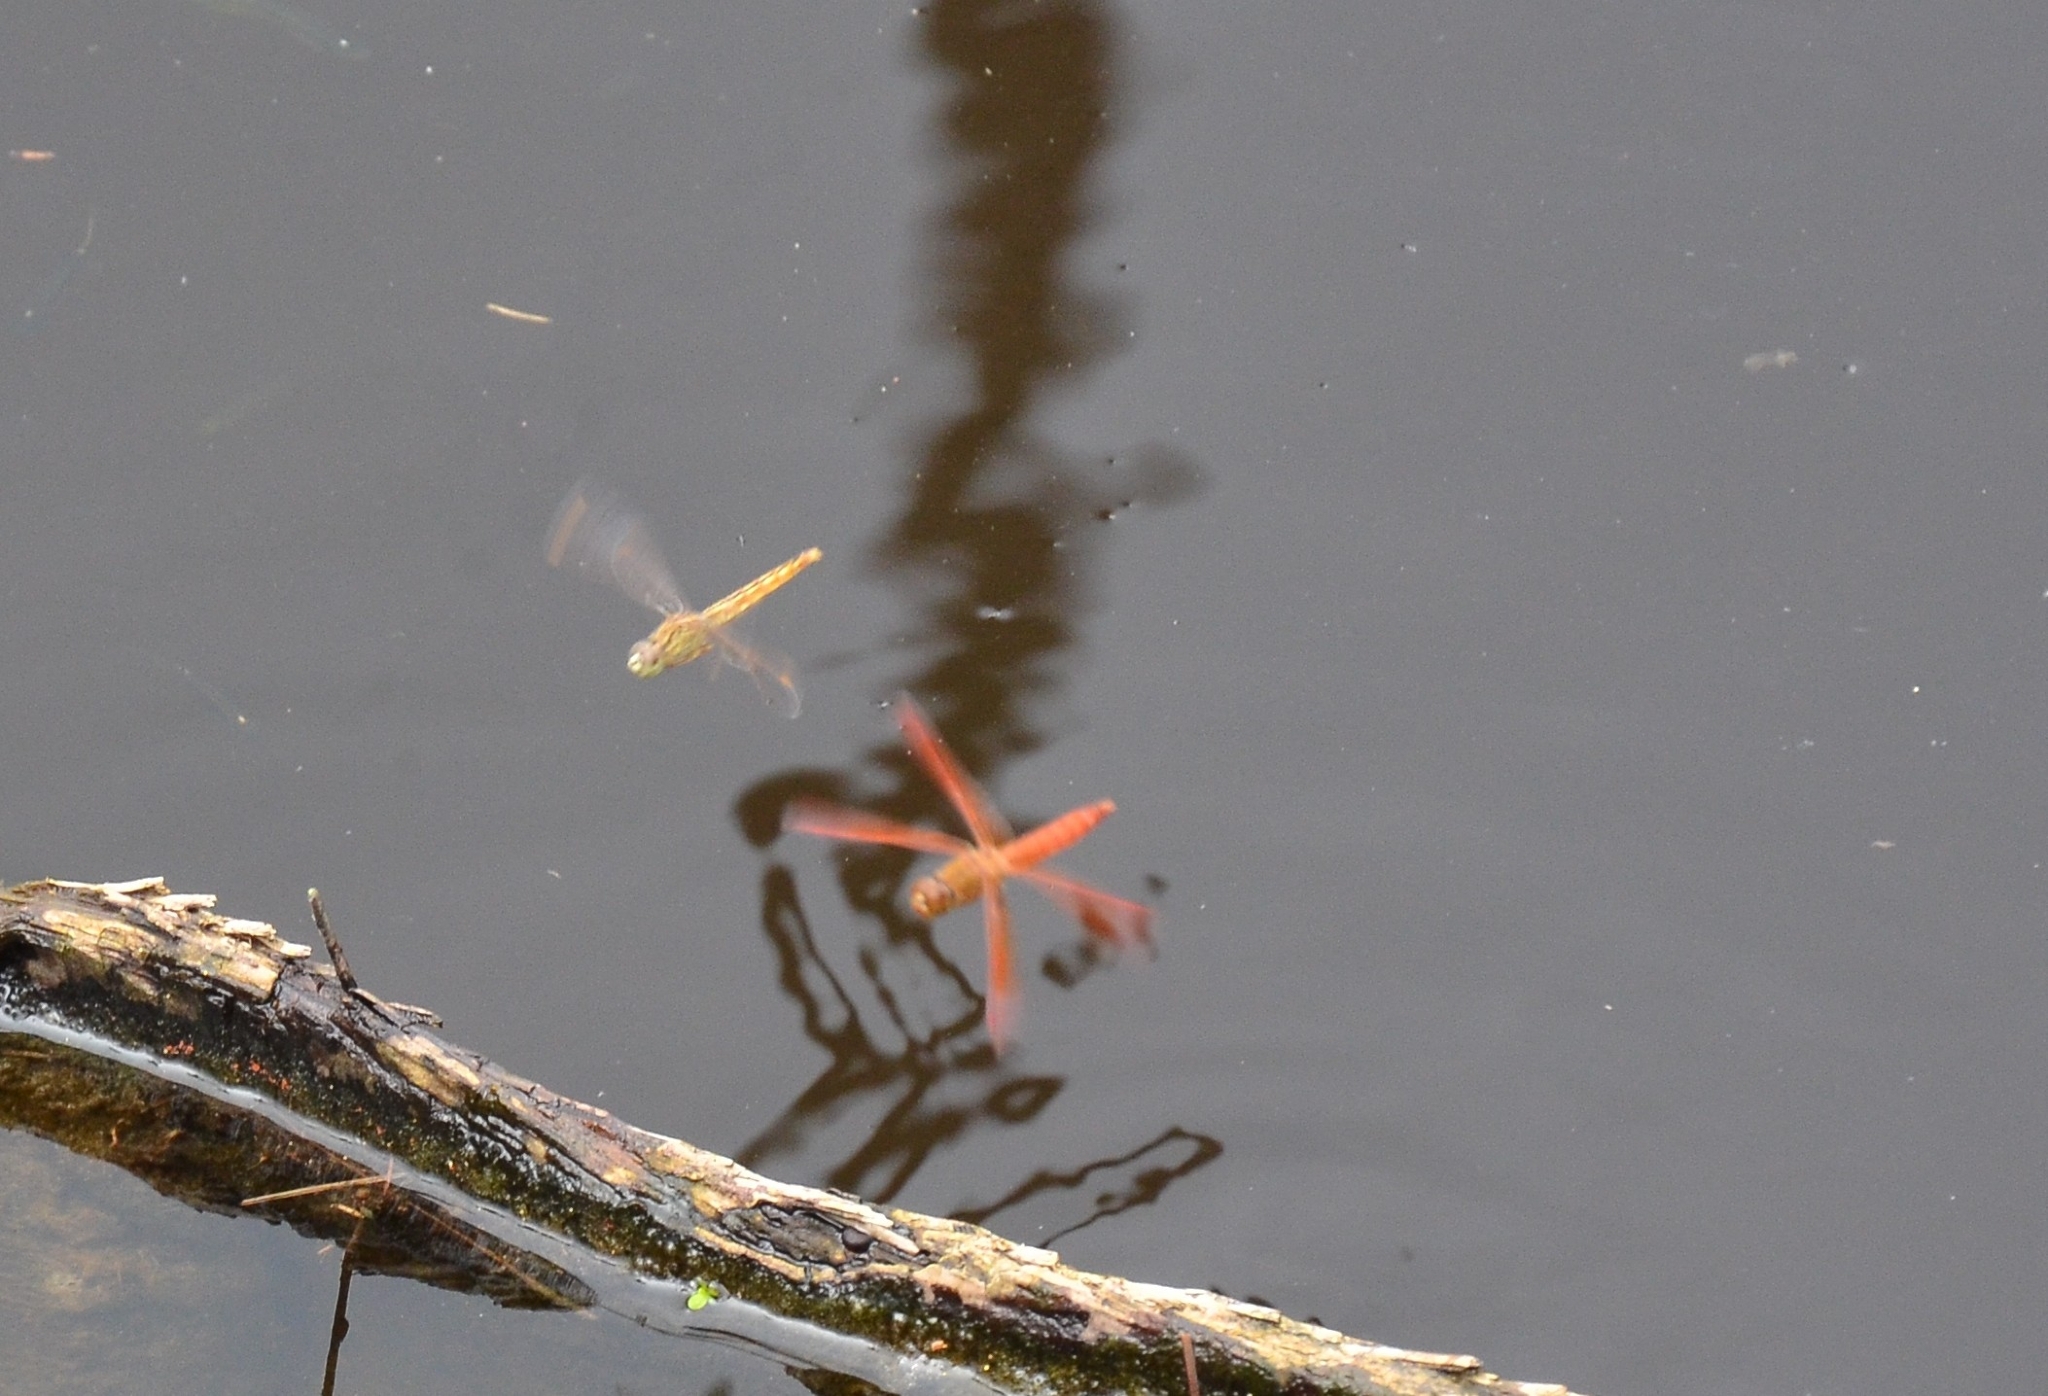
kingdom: Animalia
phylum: Arthropoda
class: Insecta
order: Odonata
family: Libellulidae
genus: Brachythemis
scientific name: Brachythemis contaminata
